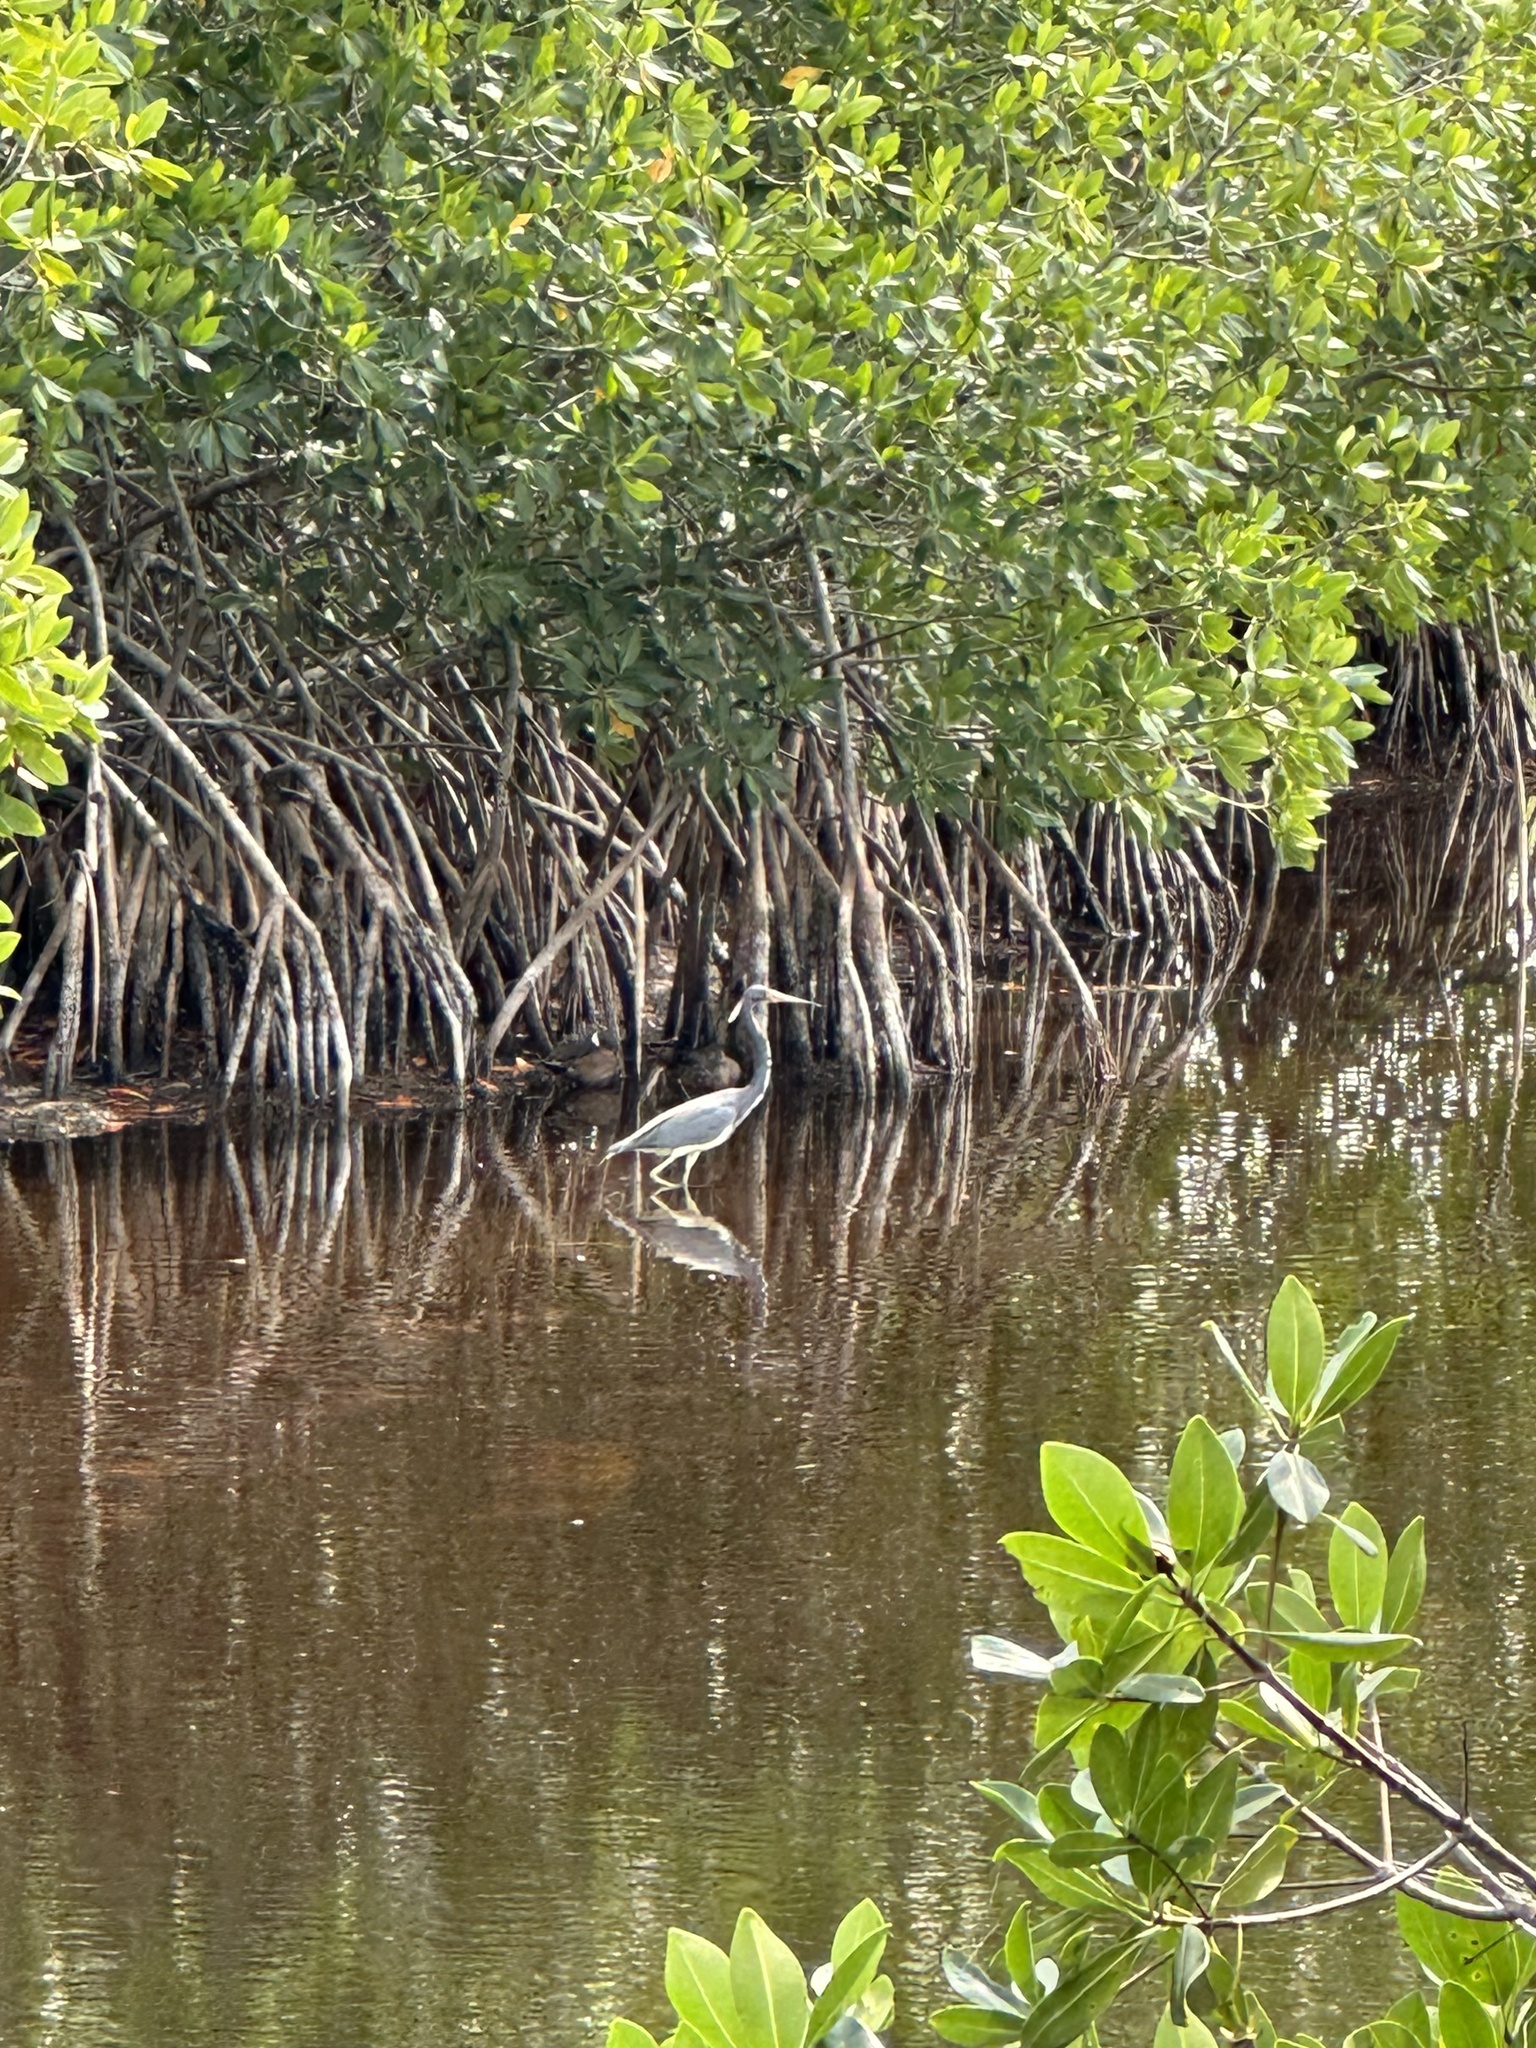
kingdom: Animalia
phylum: Chordata
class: Aves
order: Pelecaniformes
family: Ardeidae
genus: Egretta
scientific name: Egretta tricolor
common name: Tricolored heron
